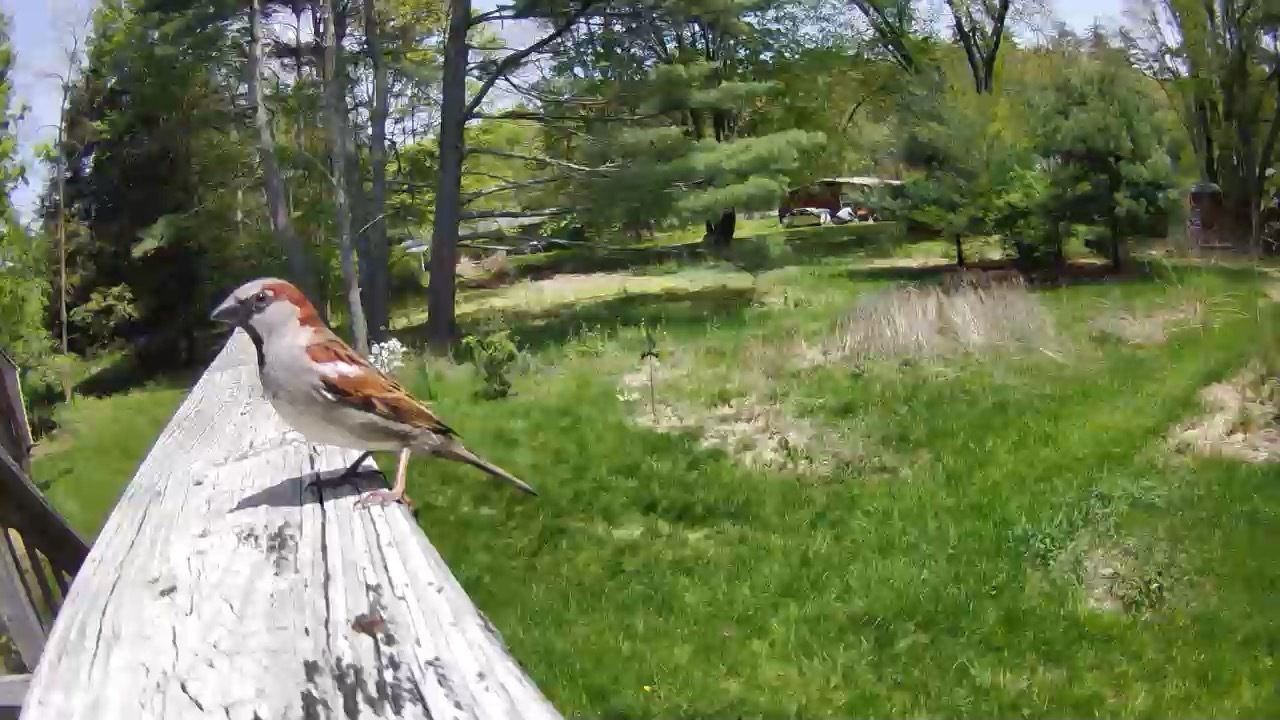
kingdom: Animalia
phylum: Chordata
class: Aves
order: Passeriformes
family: Passeridae
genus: Passer
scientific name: Passer domesticus
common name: House sparrow
